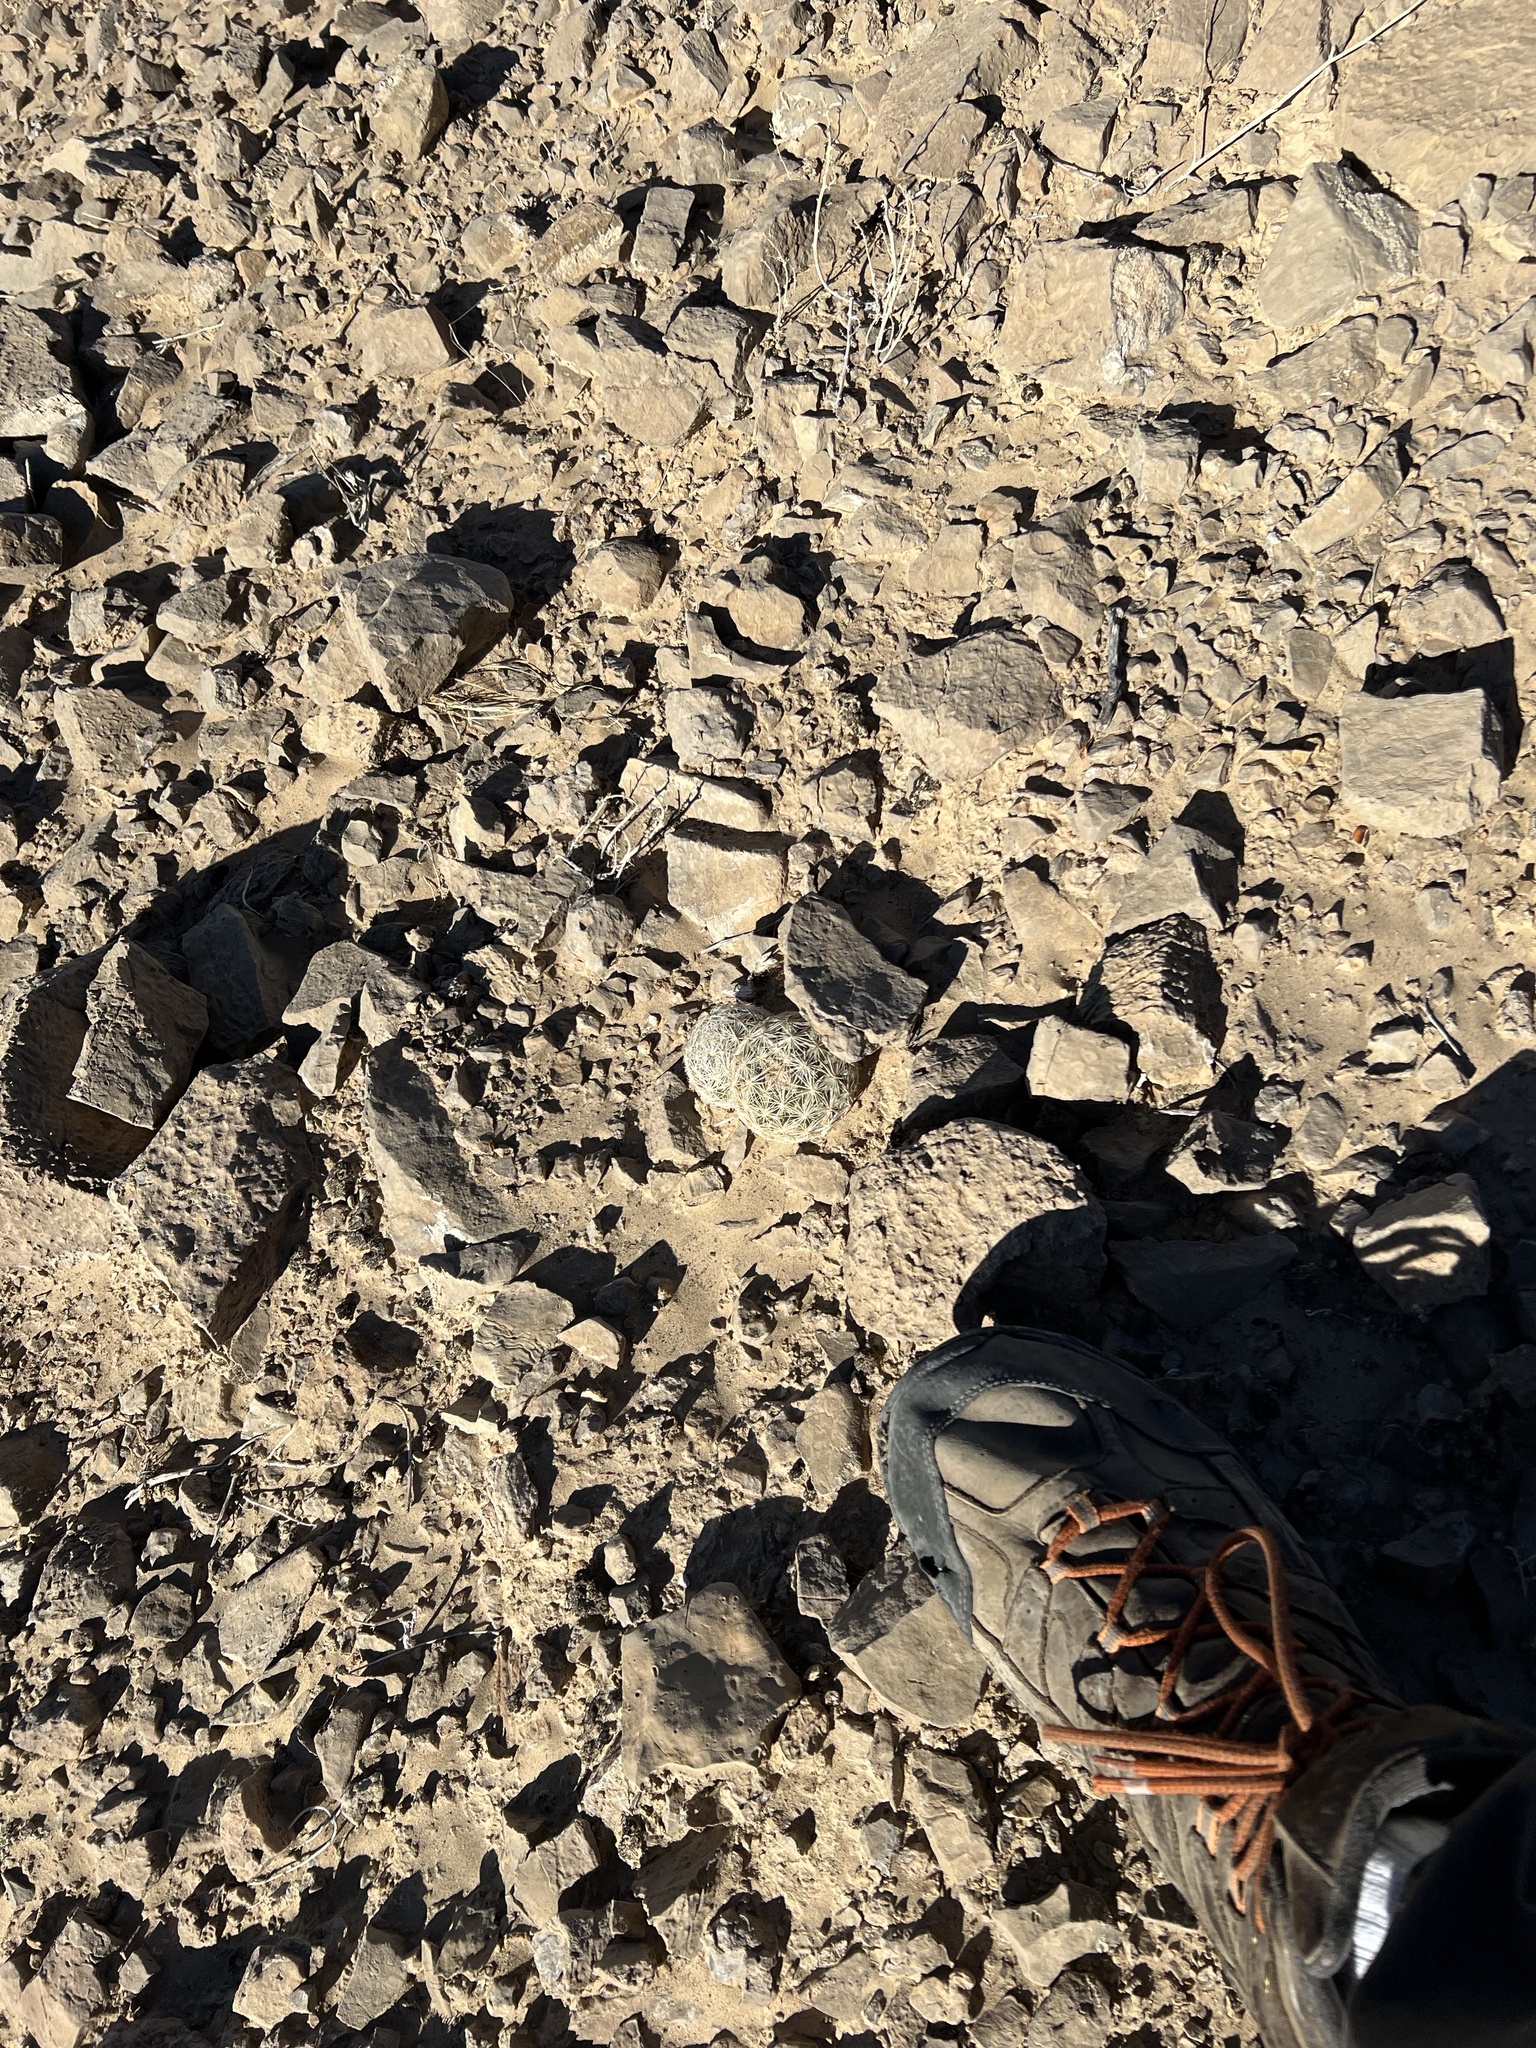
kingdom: Plantae
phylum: Tracheophyta
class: Magnoliopsida
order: Caryophyllales
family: Cactaceae
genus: Pelecyphora
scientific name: Pelecyphora dasyacantha
